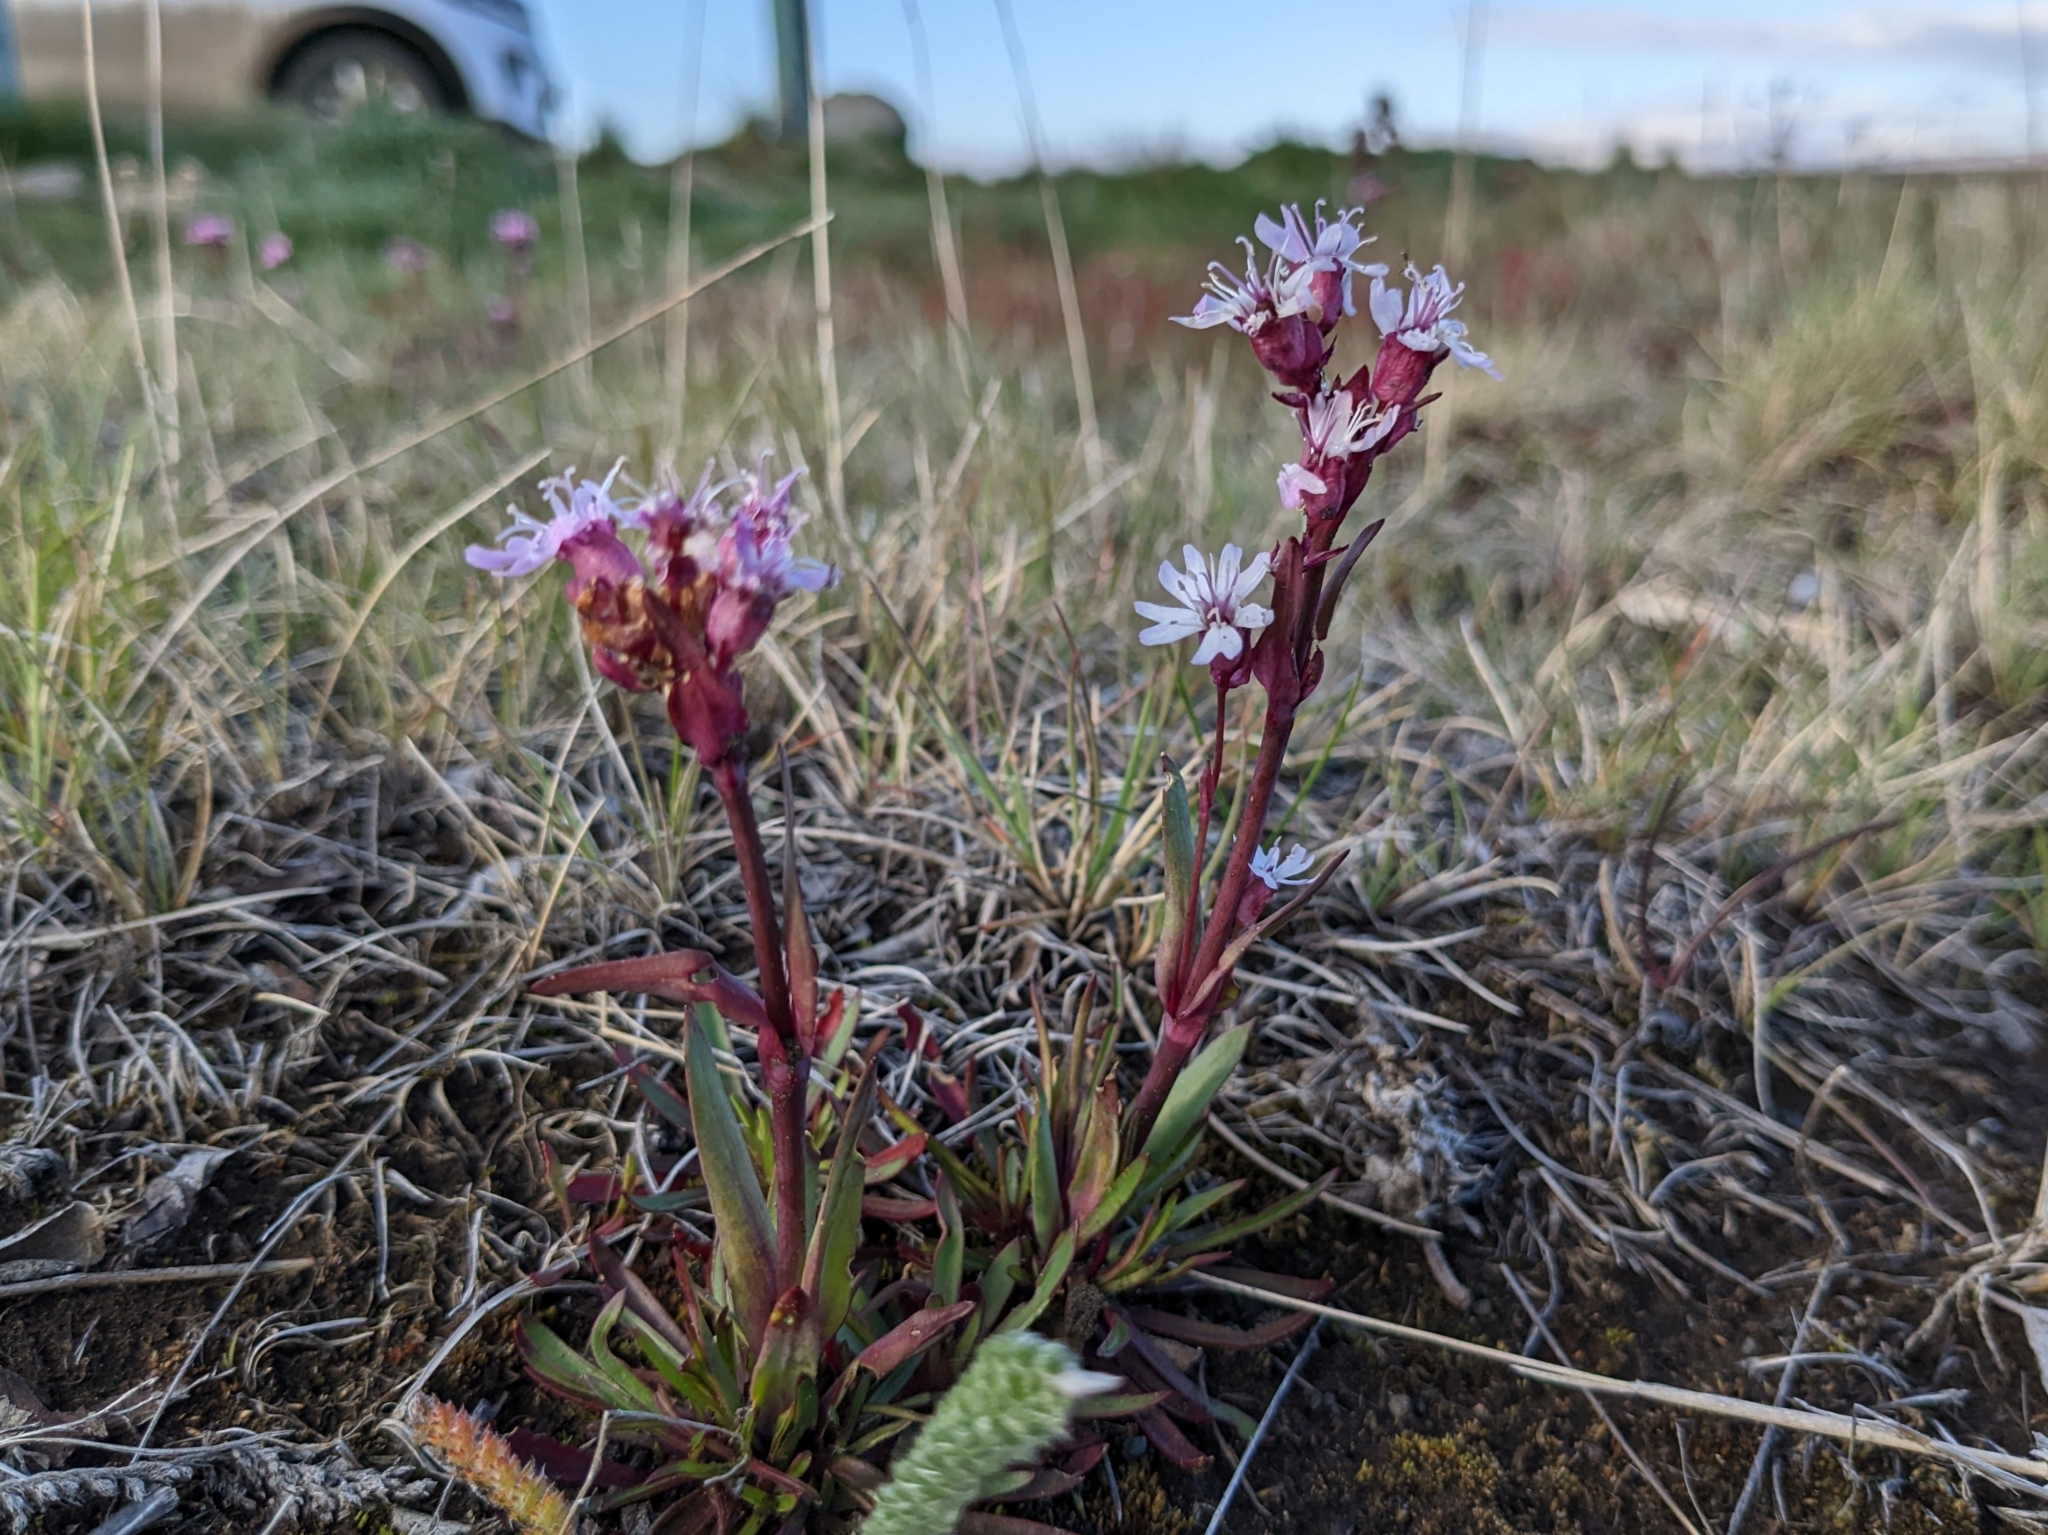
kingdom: Plantae
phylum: Tracheophyta
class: Magnoliopsida
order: Caryophyllales
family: Caryophyllaceae
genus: Viscaria
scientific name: Viscaria alpina
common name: Alpine campion
